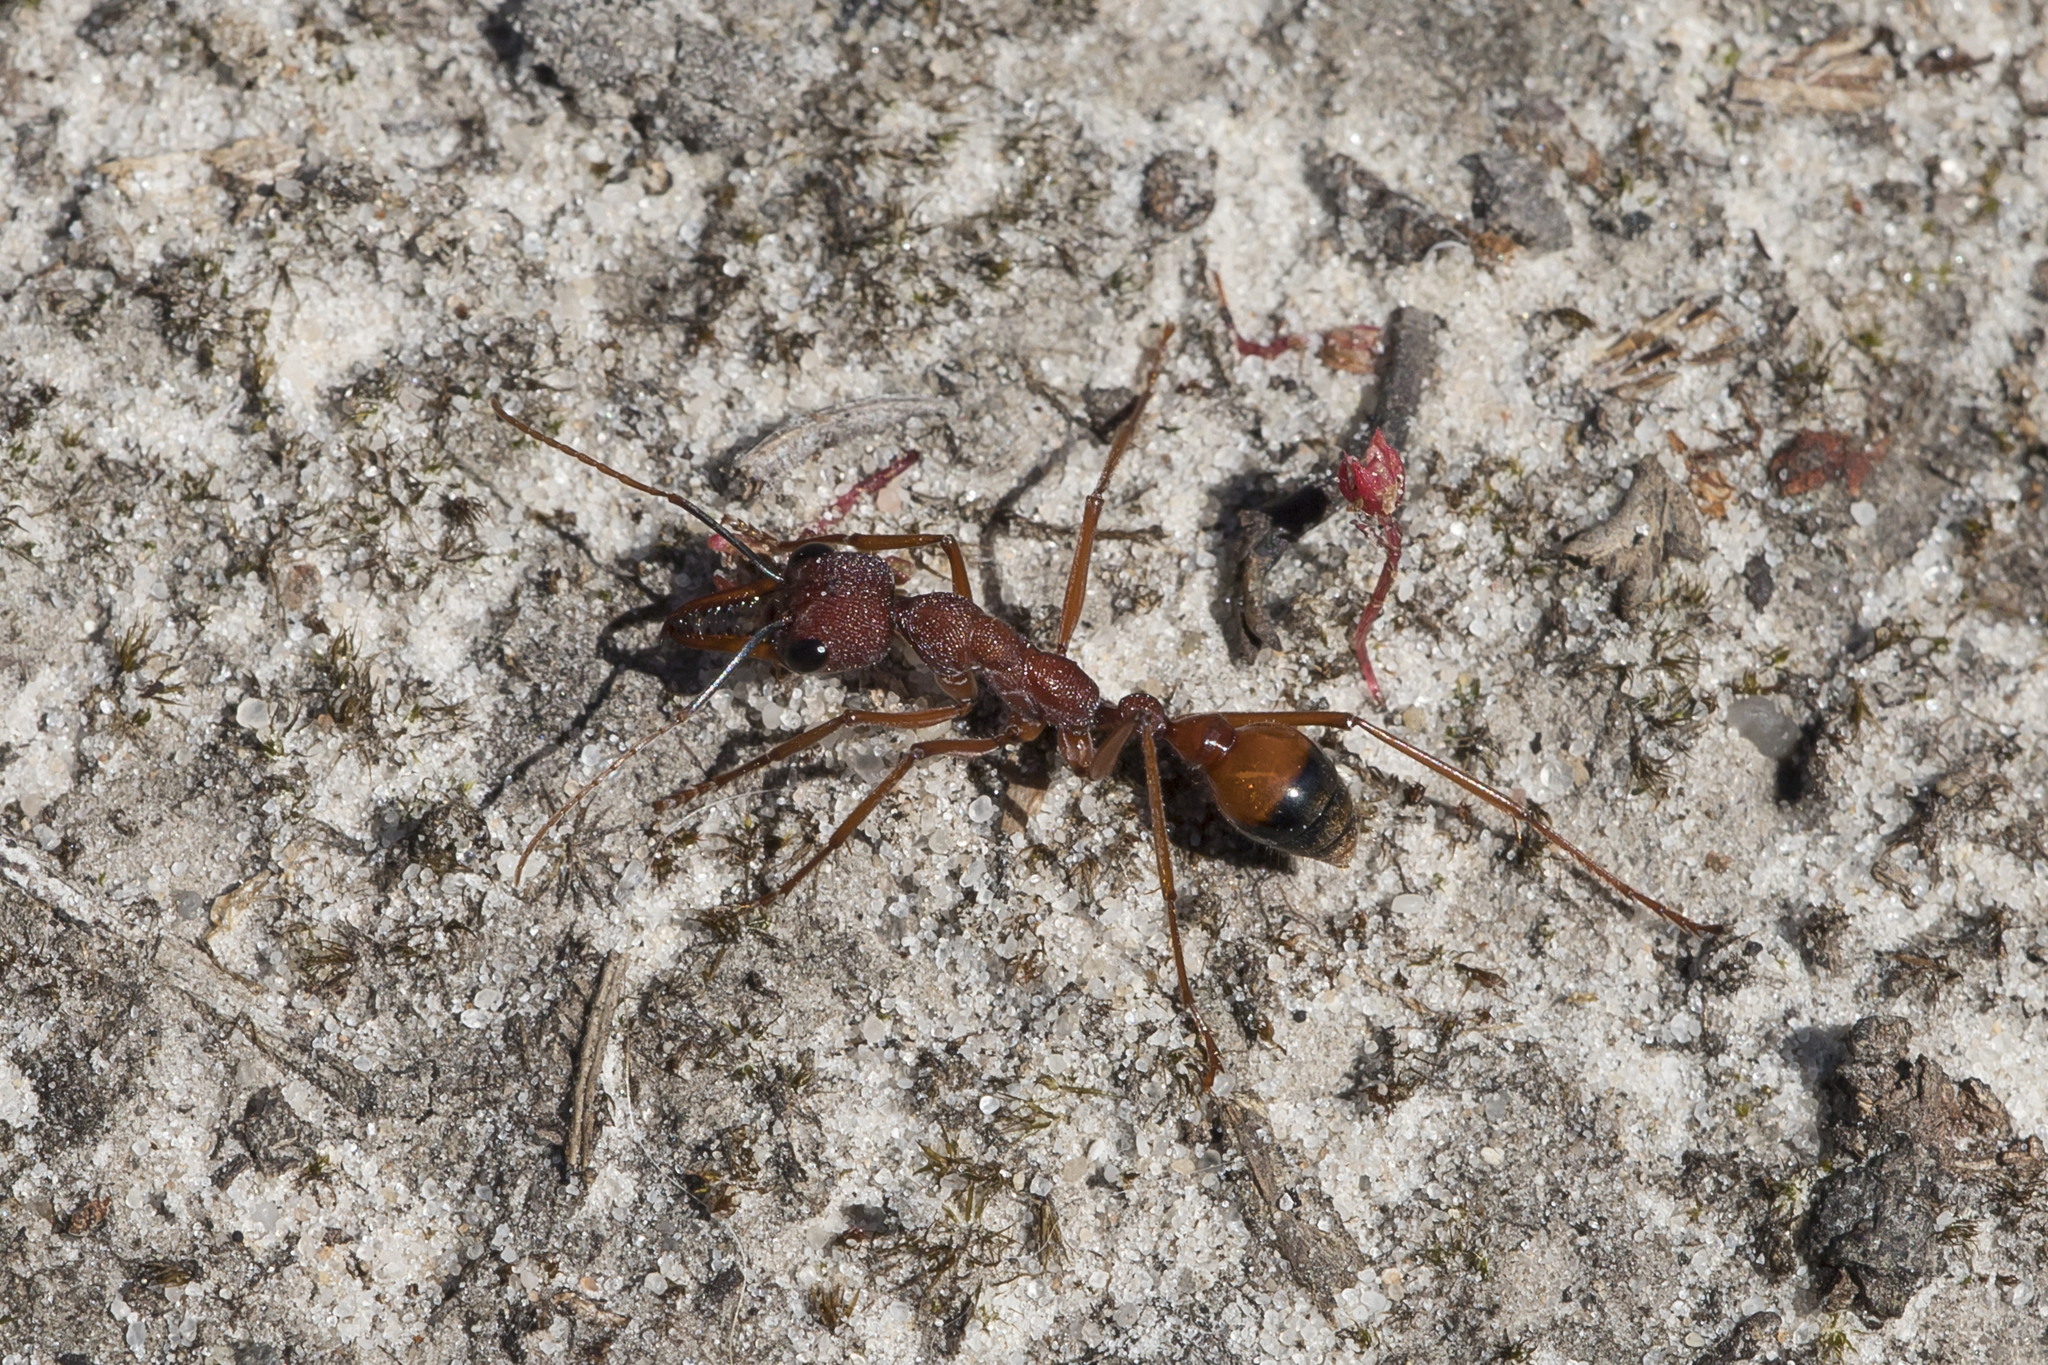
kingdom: Animalia
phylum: Arthropoda
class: Insecta
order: Hymenoptera
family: Formicidae
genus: Myrmecia
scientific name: Myrmecia nigriscapa
